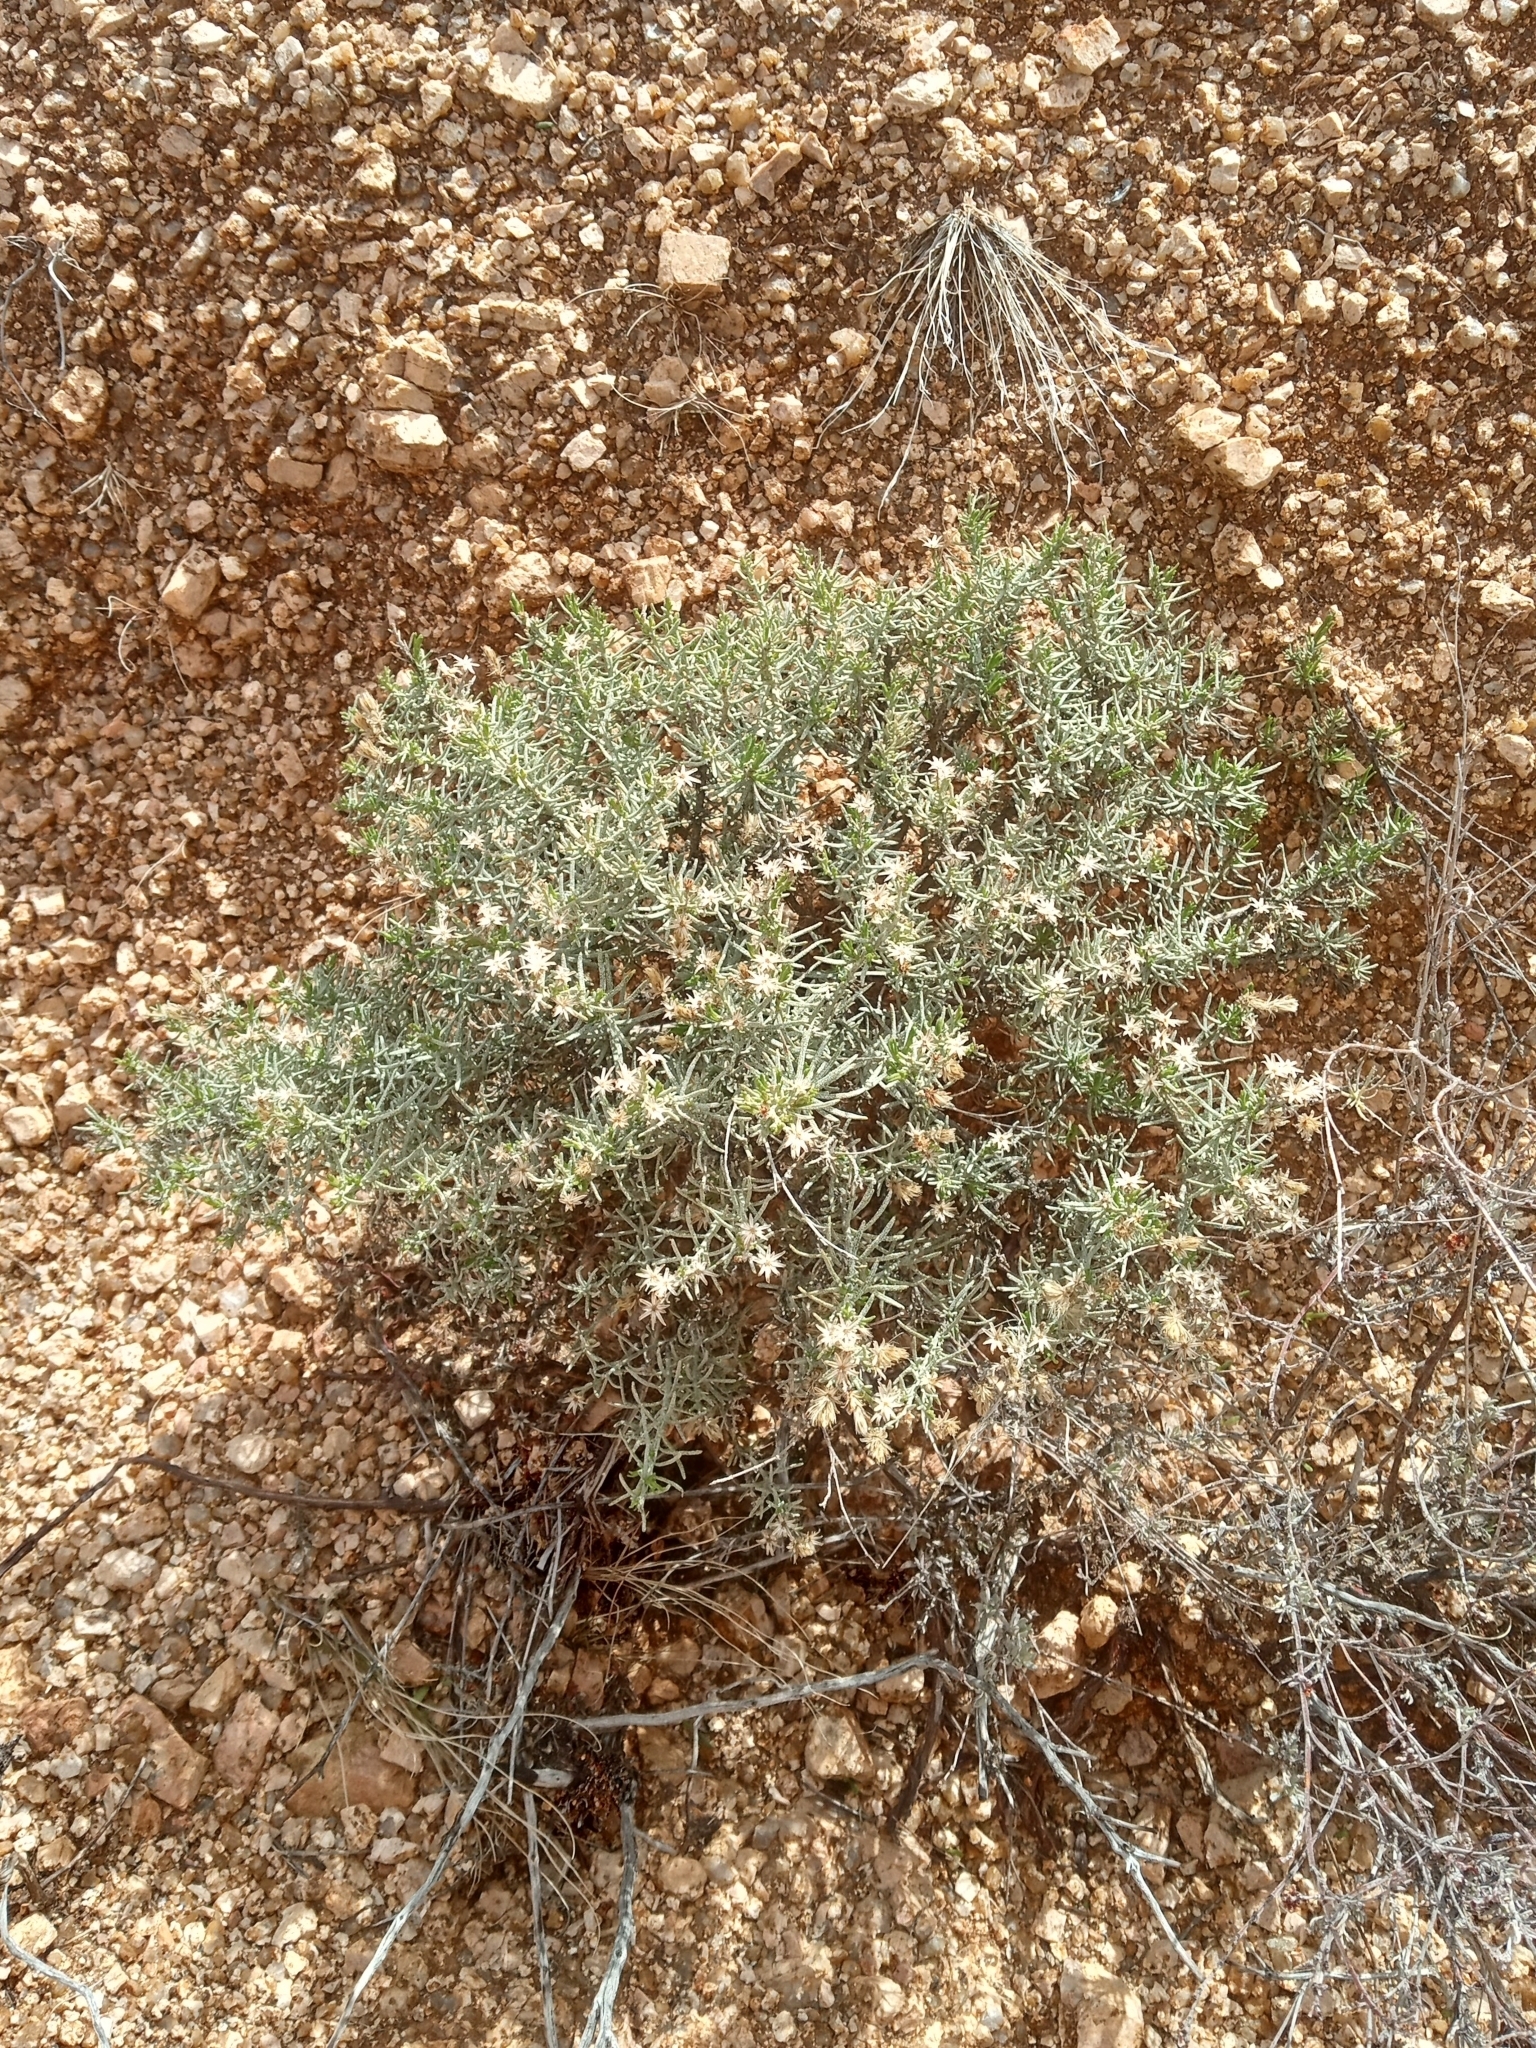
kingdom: Plantae
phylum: Tracheophyta
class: Magnoliopsida
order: Asterales
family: Asteraceae
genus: Ericameria
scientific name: Ericameria laricifolia
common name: Turpentine-bush
